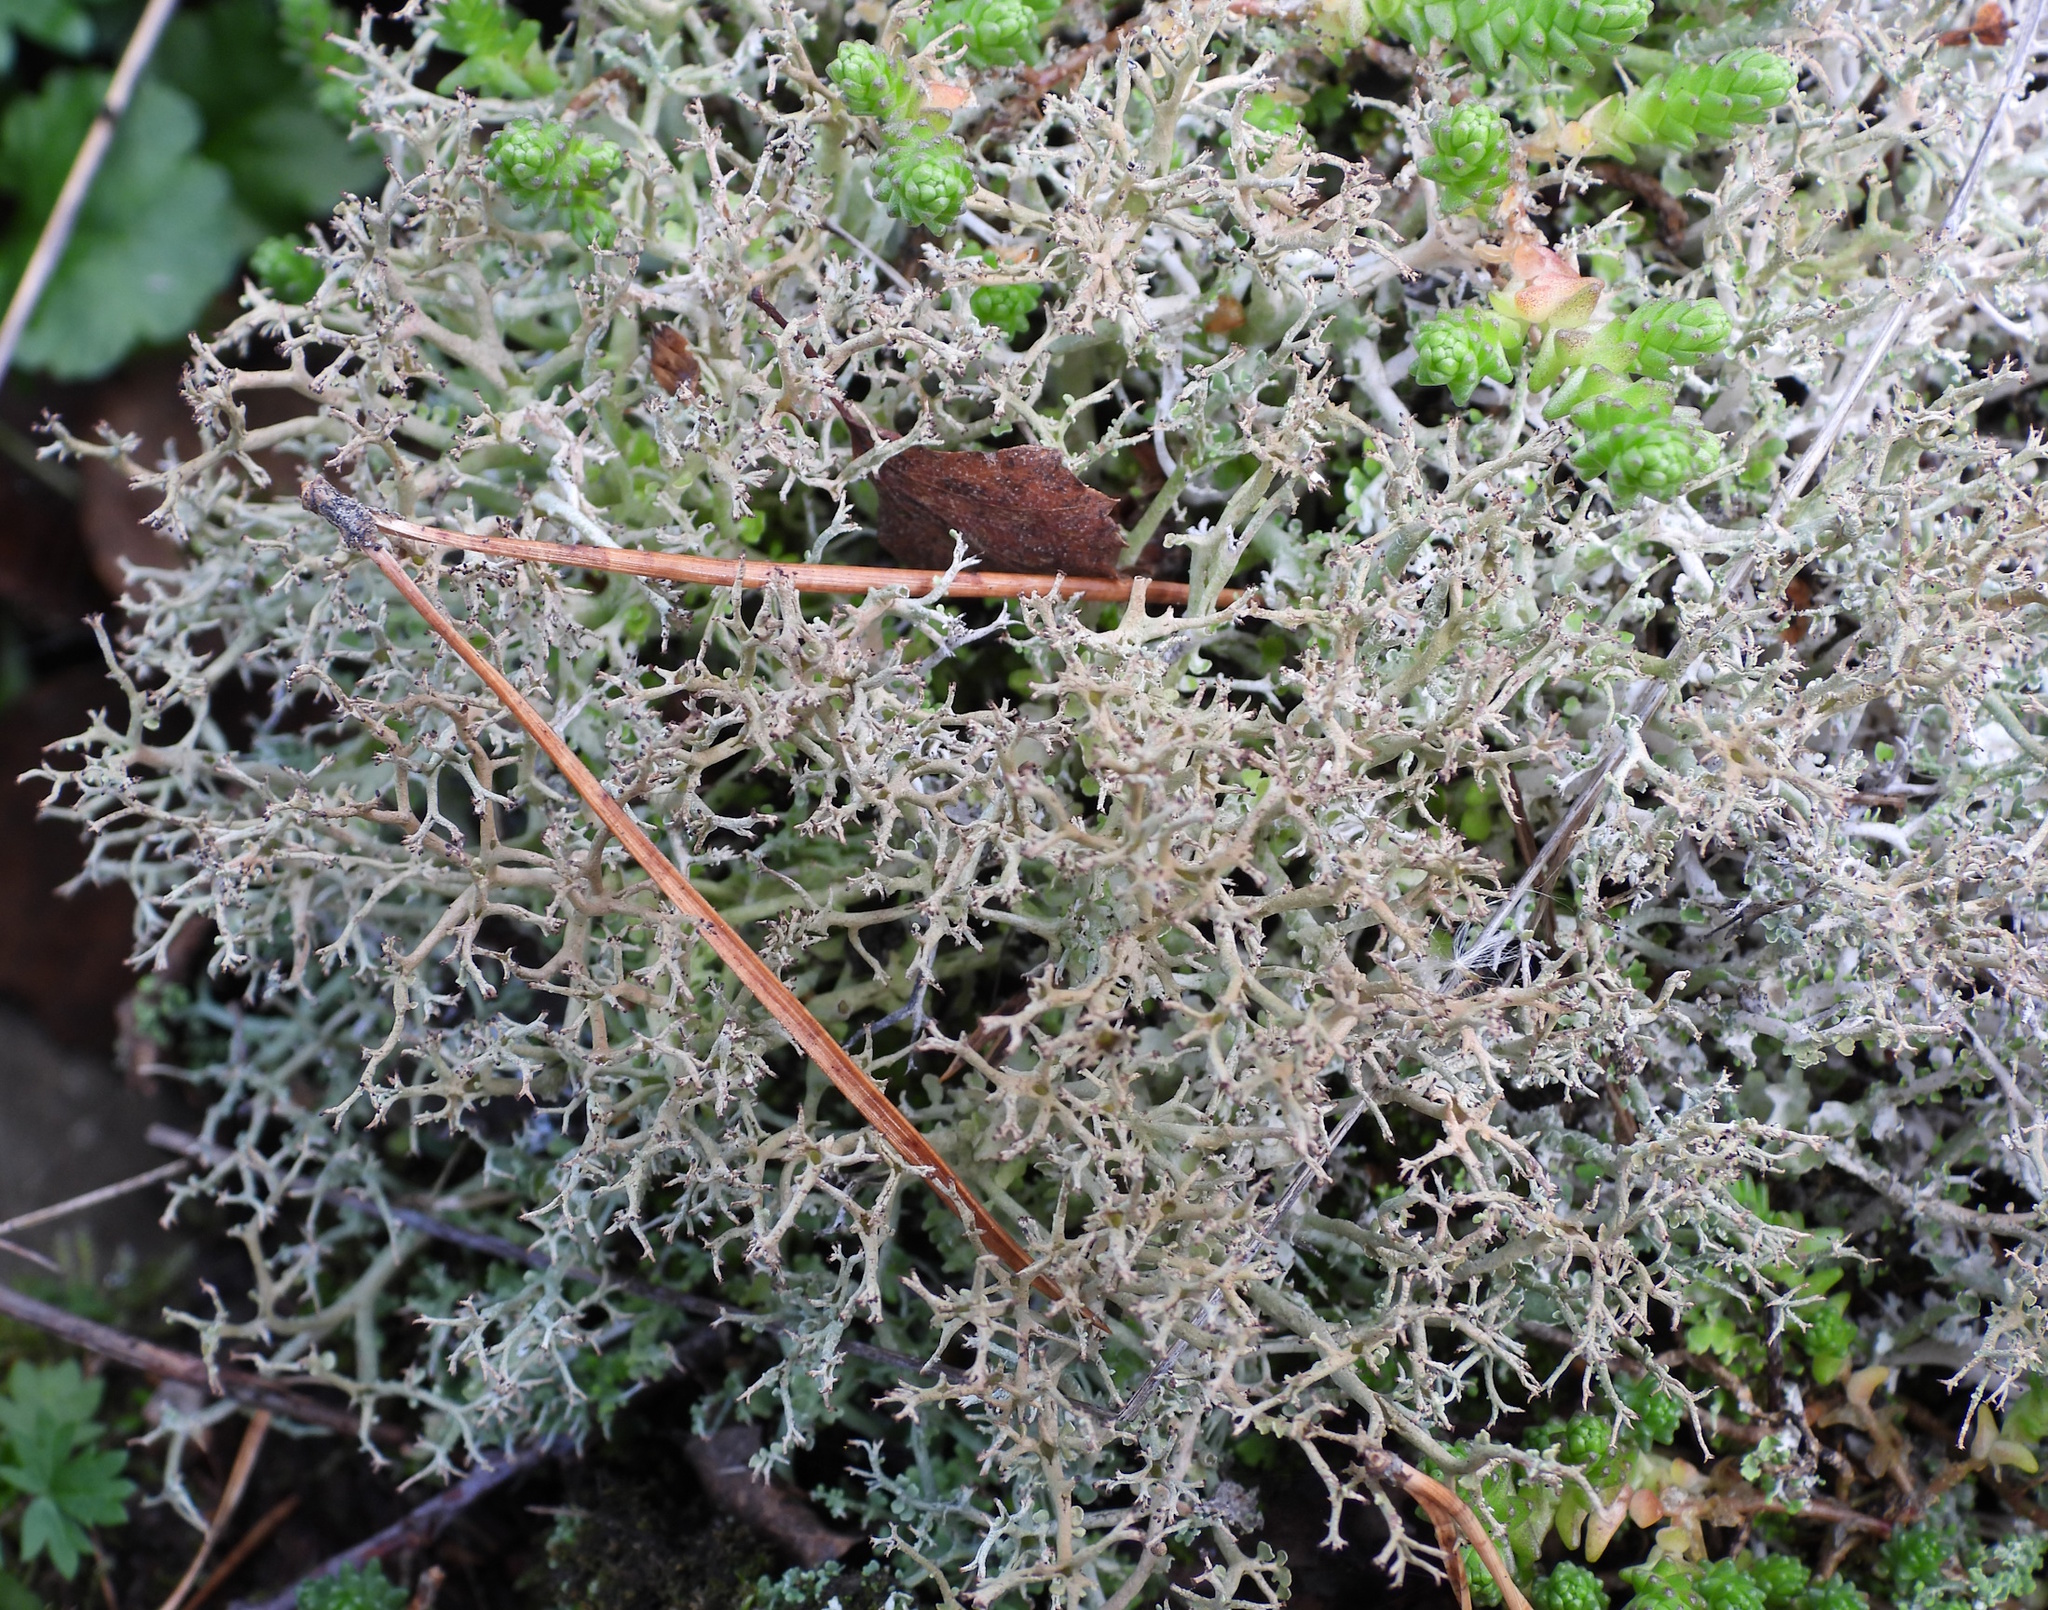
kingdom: Fungi
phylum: Ascomycota
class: Lecanoromycetes
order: Lecanorales
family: Cladoniaceae
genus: Cladonia
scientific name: Cladonia furcata
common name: Many-forked cladonia
